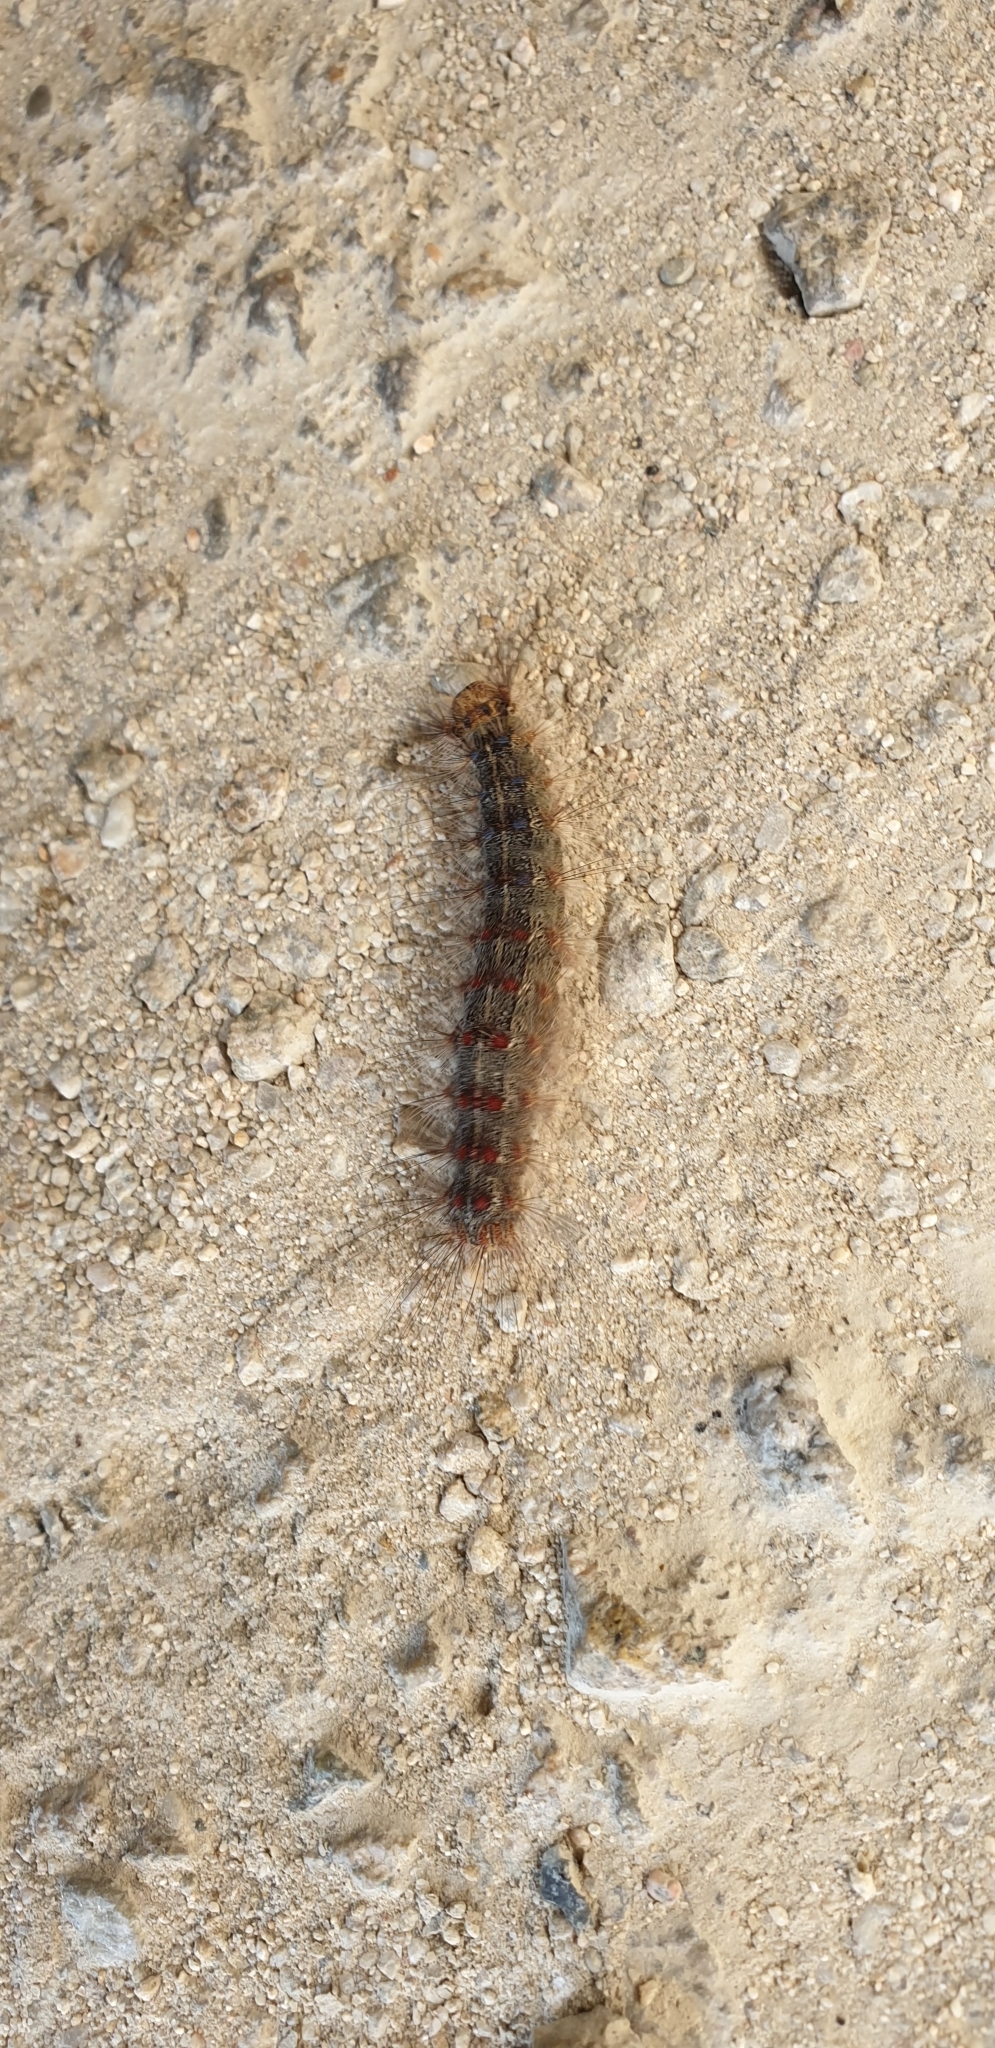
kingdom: Animalia
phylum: Arthropoda
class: Insecta
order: Lepidoptera
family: Erebidae
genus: Lymantria
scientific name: Lymantria dispar
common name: Gypsy moth
